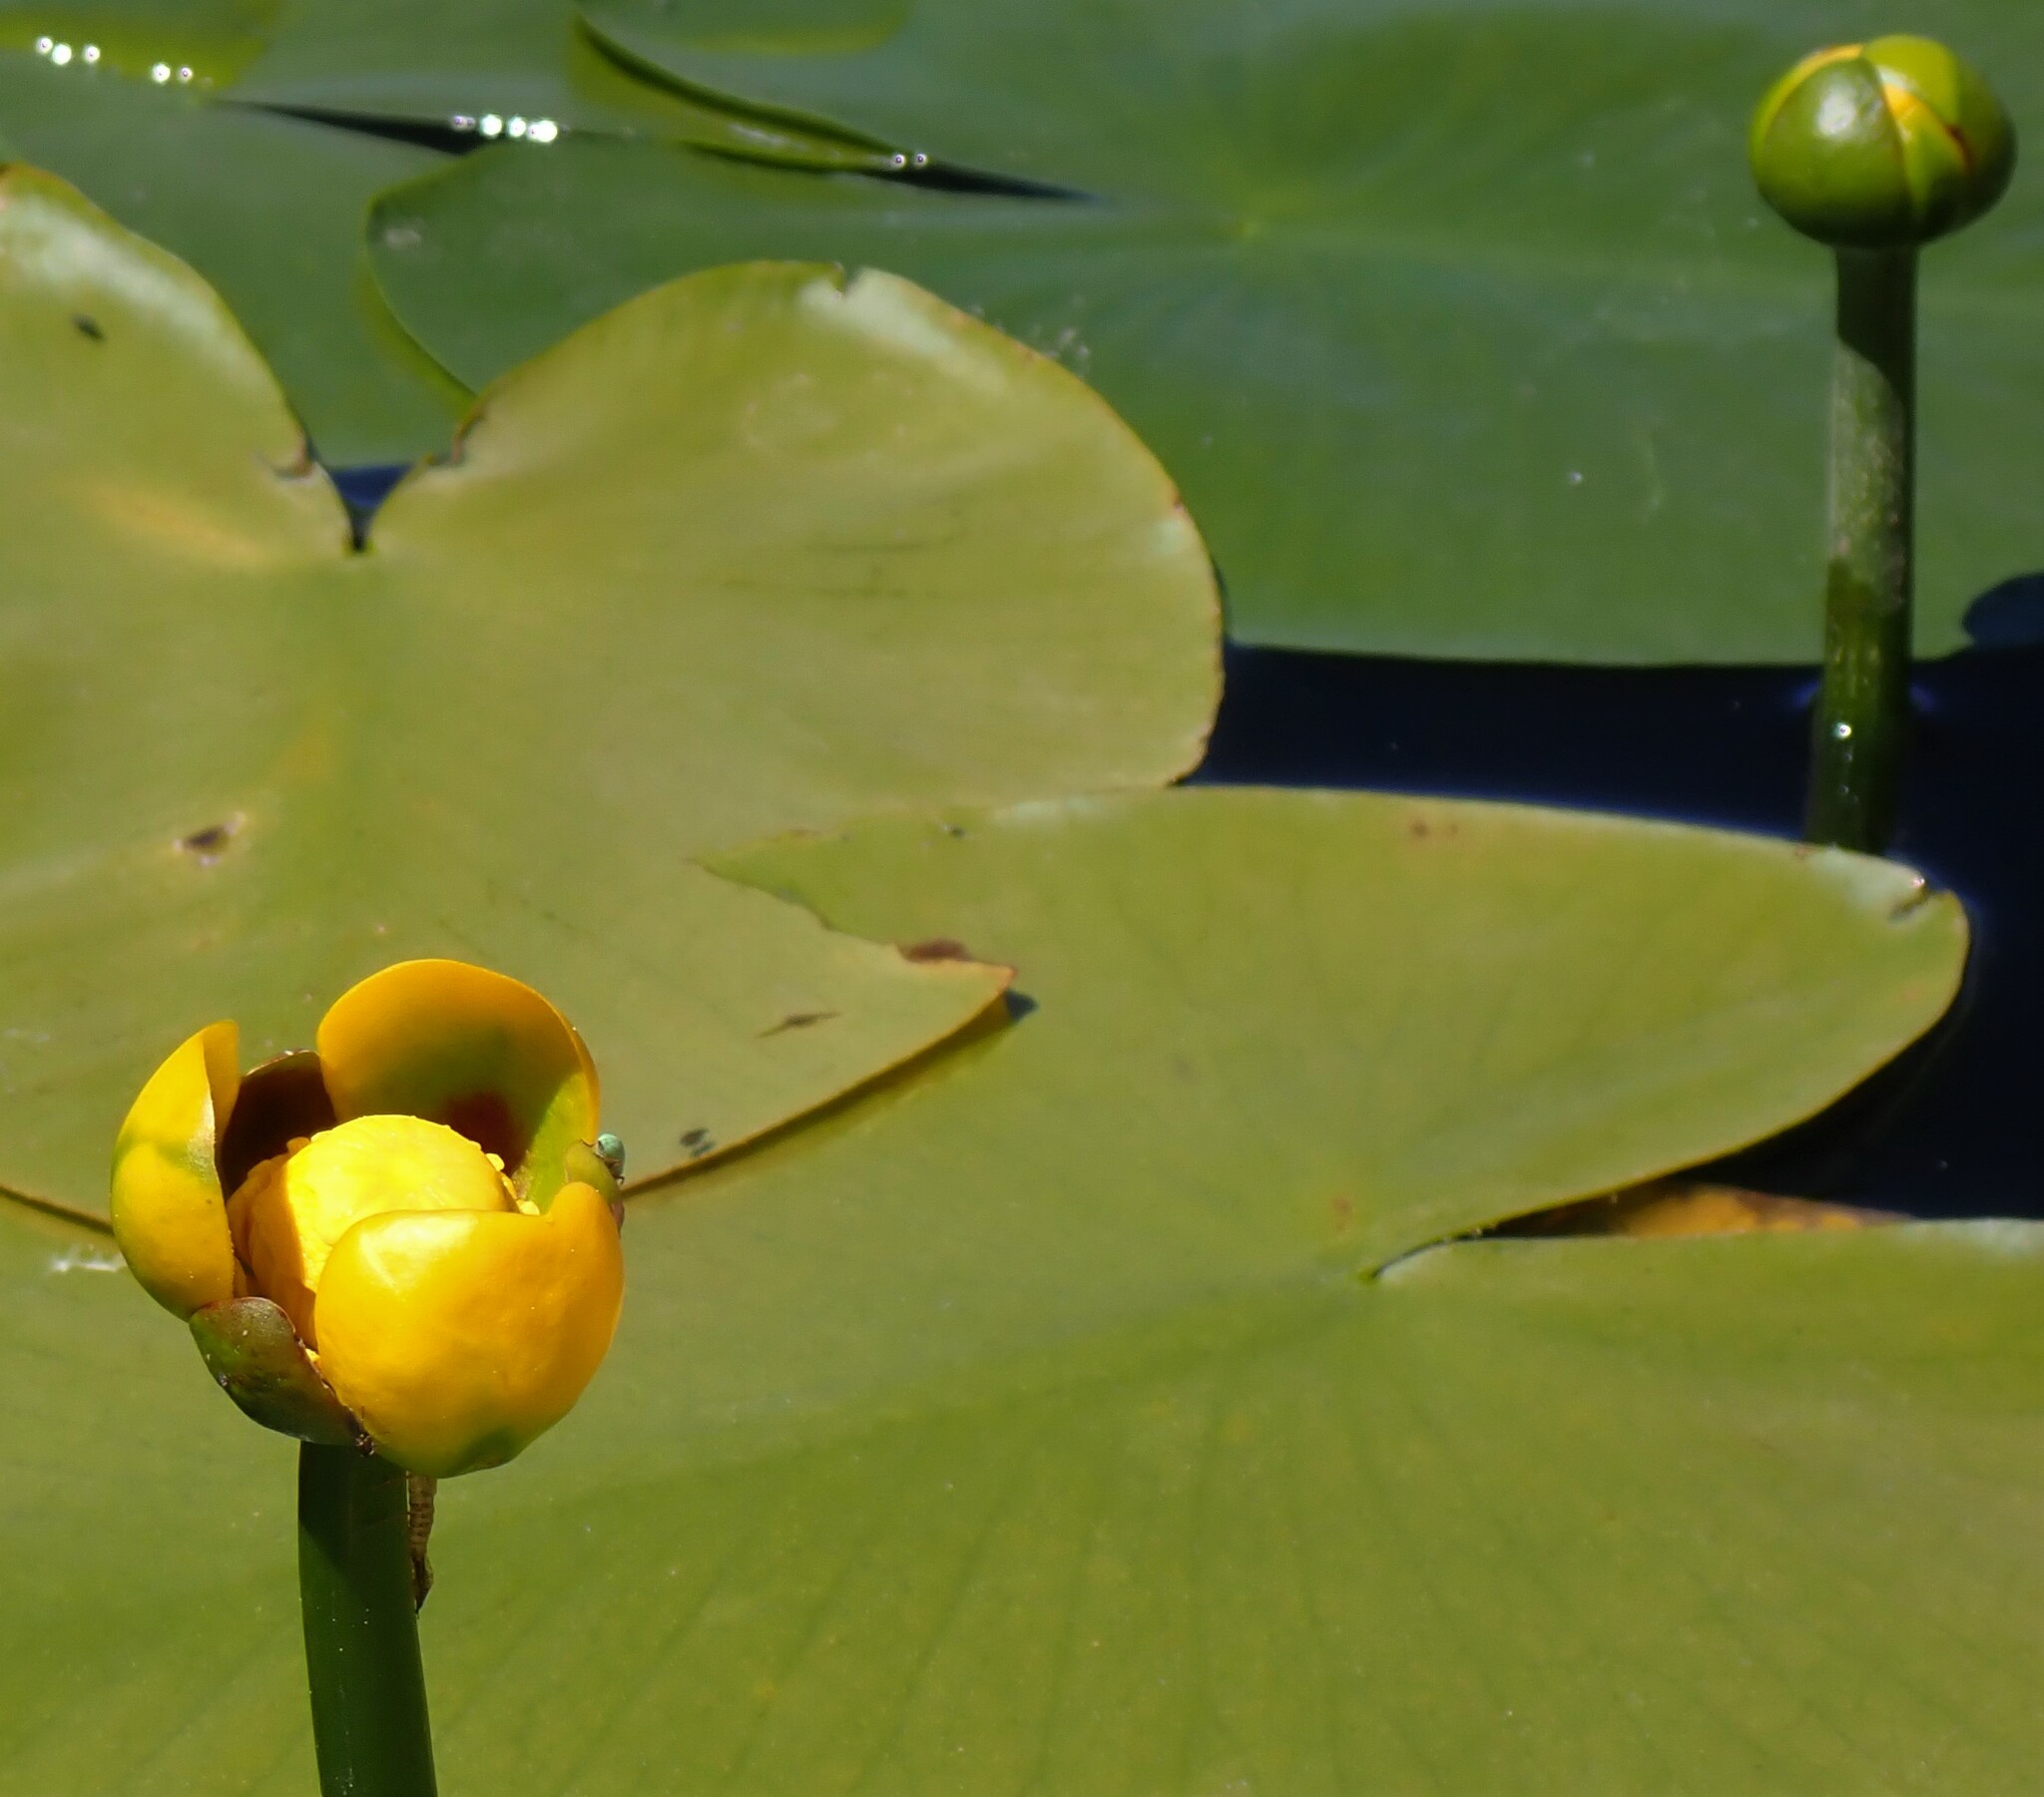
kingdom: Plantae
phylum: Tracheophyta
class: Magnoliopsida
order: Nymphaeales
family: Nymphaeaceae
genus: Nuphar
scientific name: Nuphar variegata
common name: Beaver-root
